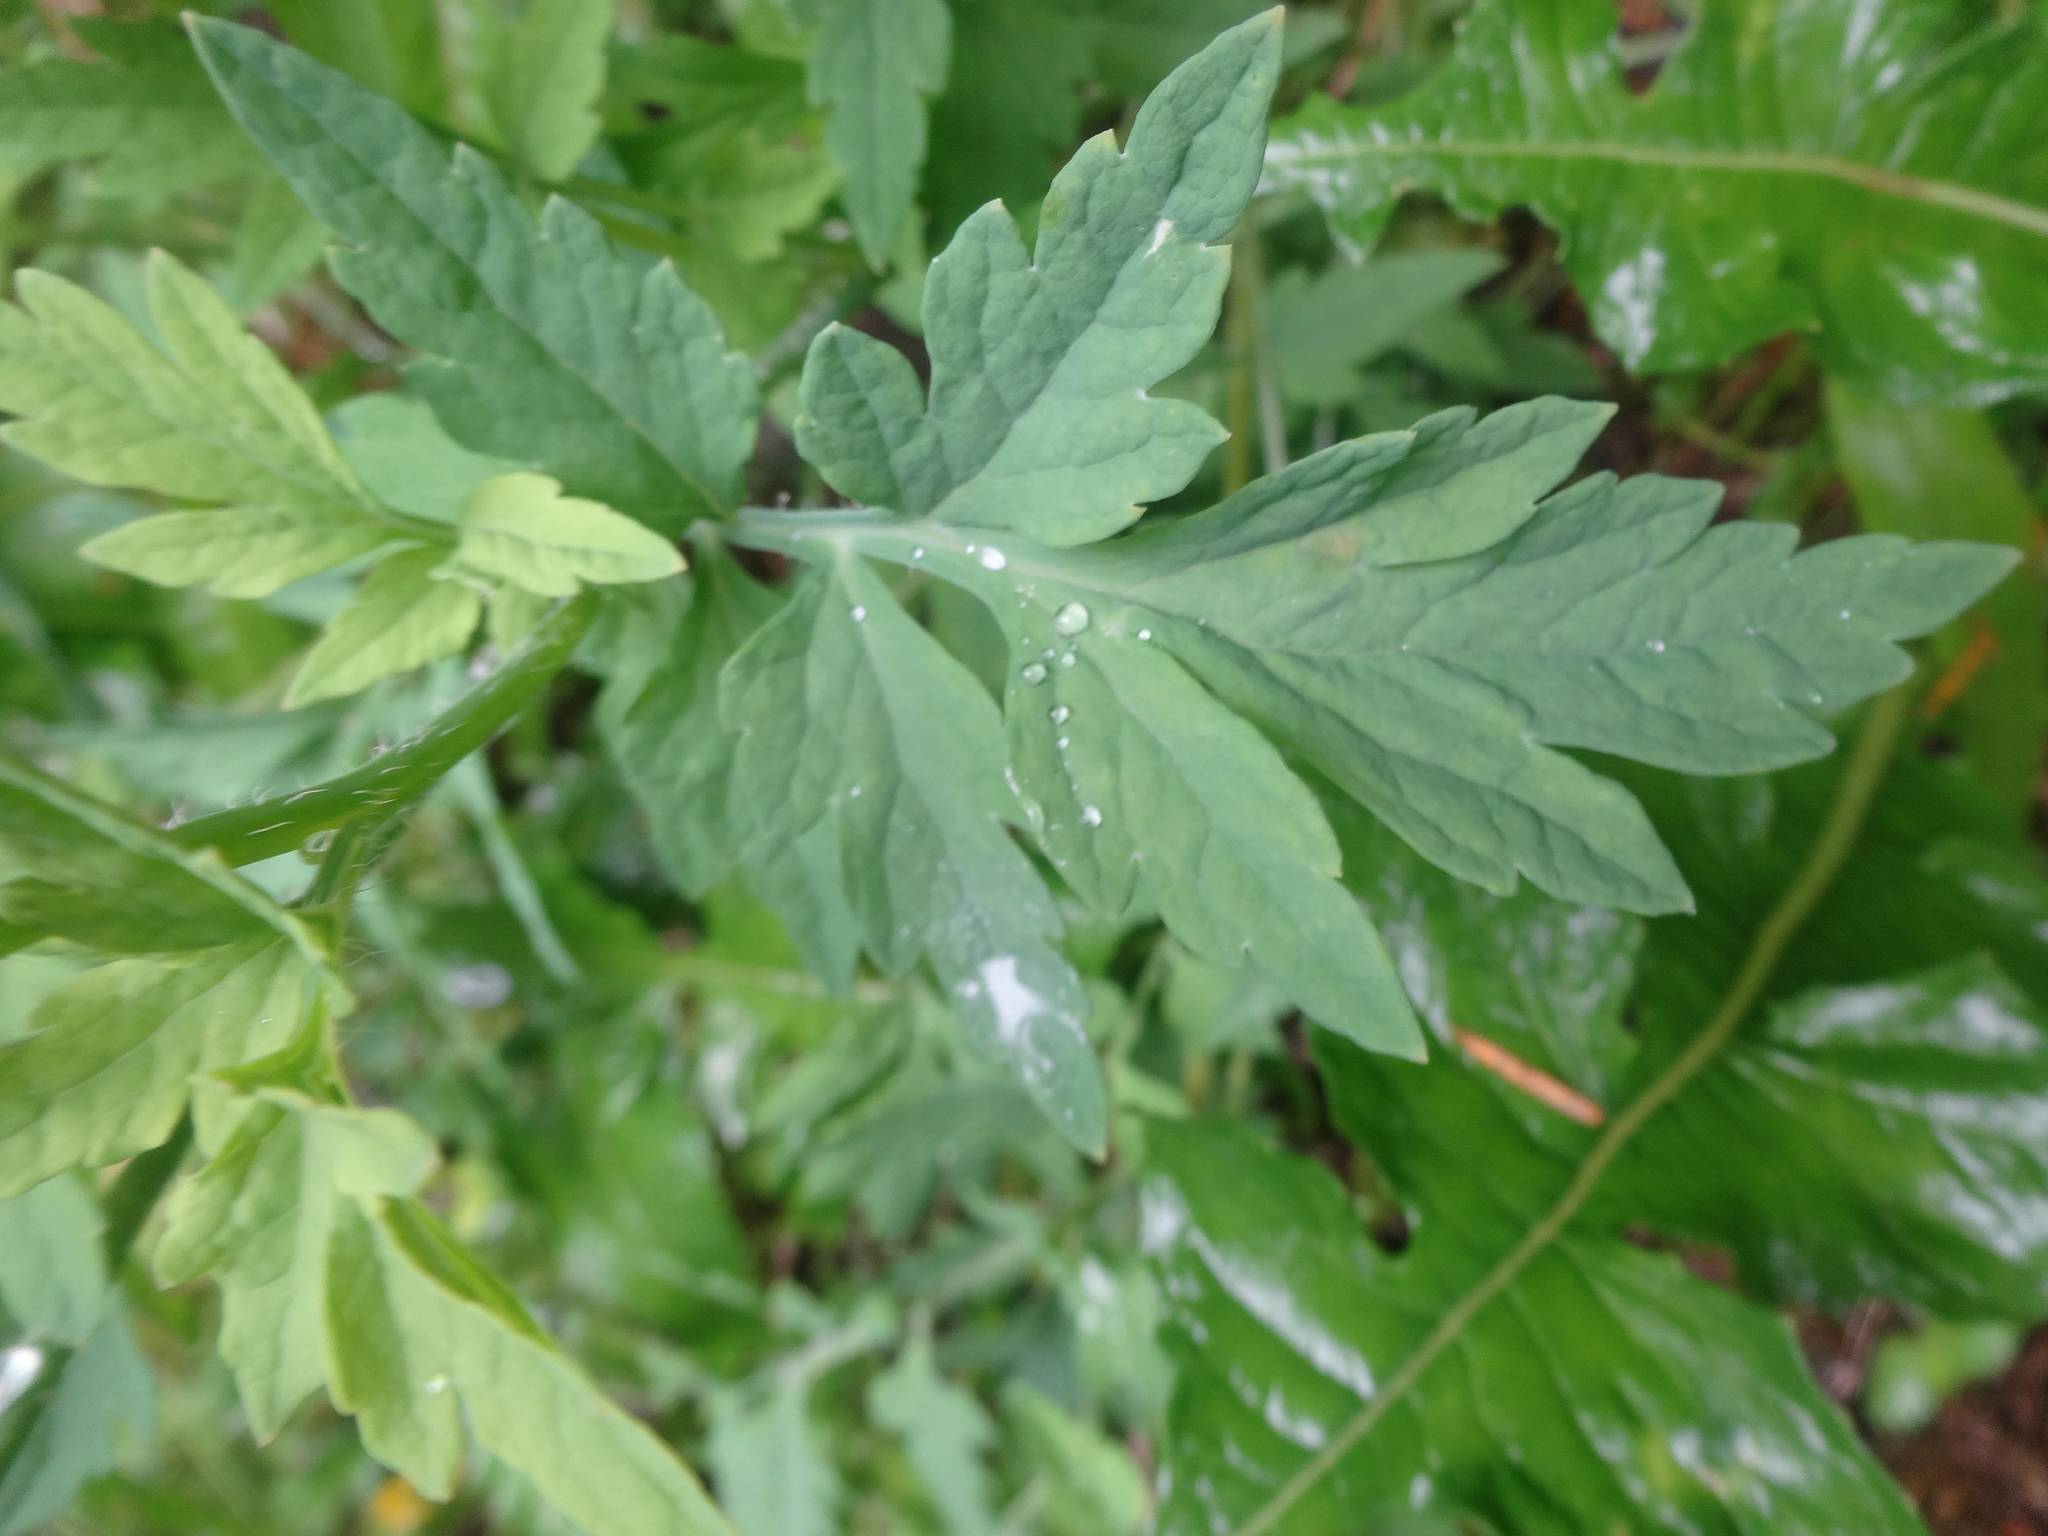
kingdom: Plantae
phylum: Tracheophyta
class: Magnoliopsida
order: Ranunculales
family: Papaveraceae
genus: Papaver
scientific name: Papaver cambricum
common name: Poppy
